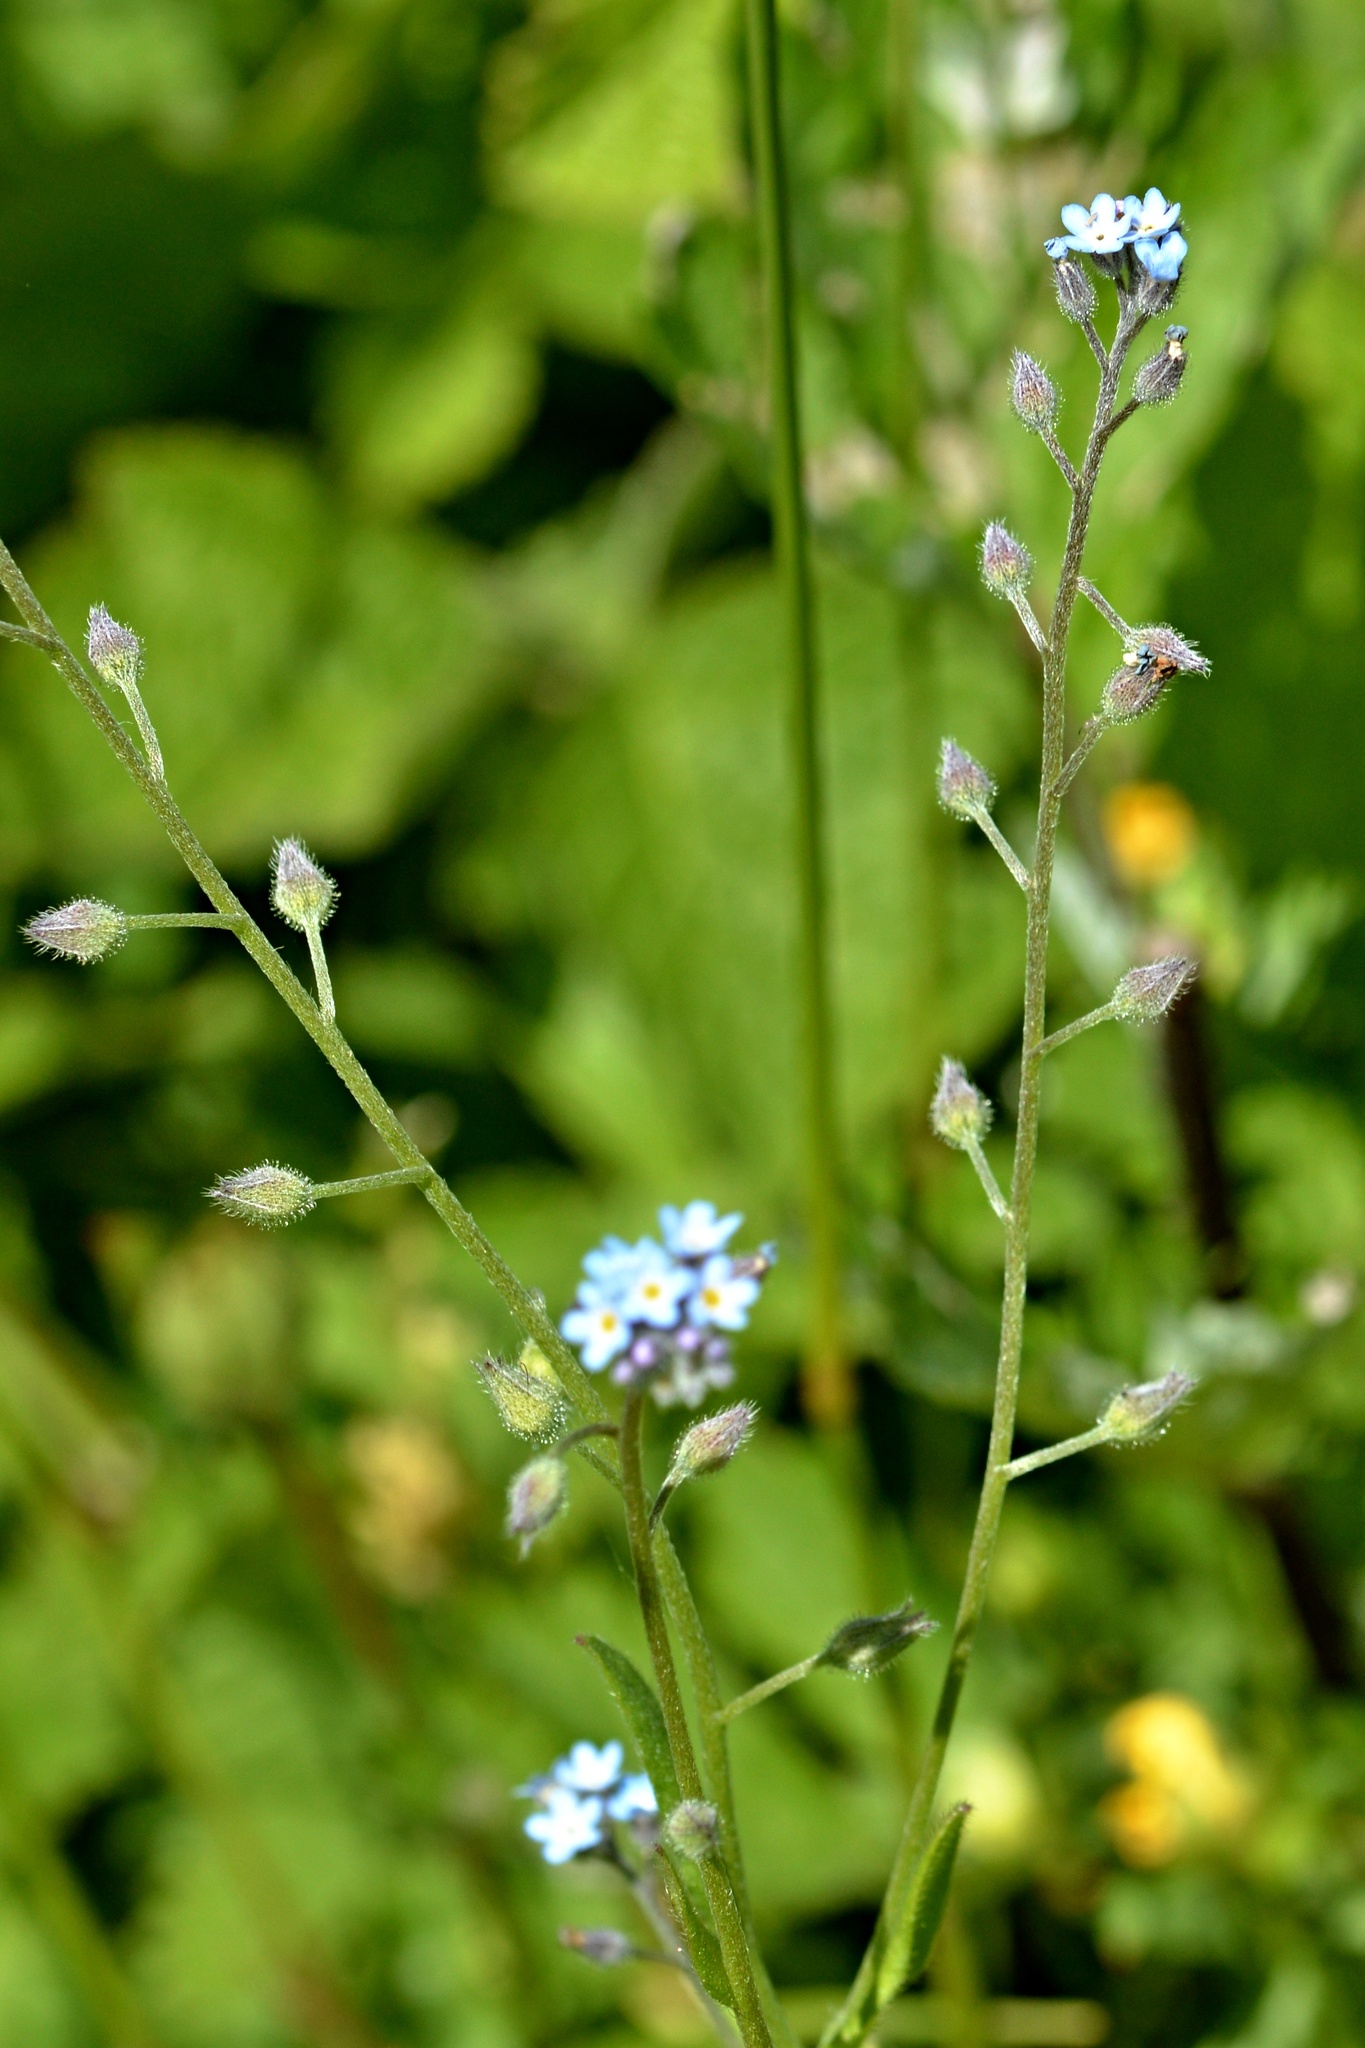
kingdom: Plantae
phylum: Tracheophyta
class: Magnoliopsida
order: Boraginales
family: Boraginaceae
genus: Myosotis
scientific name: Myosotis arvensis
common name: Field forget-me-not
